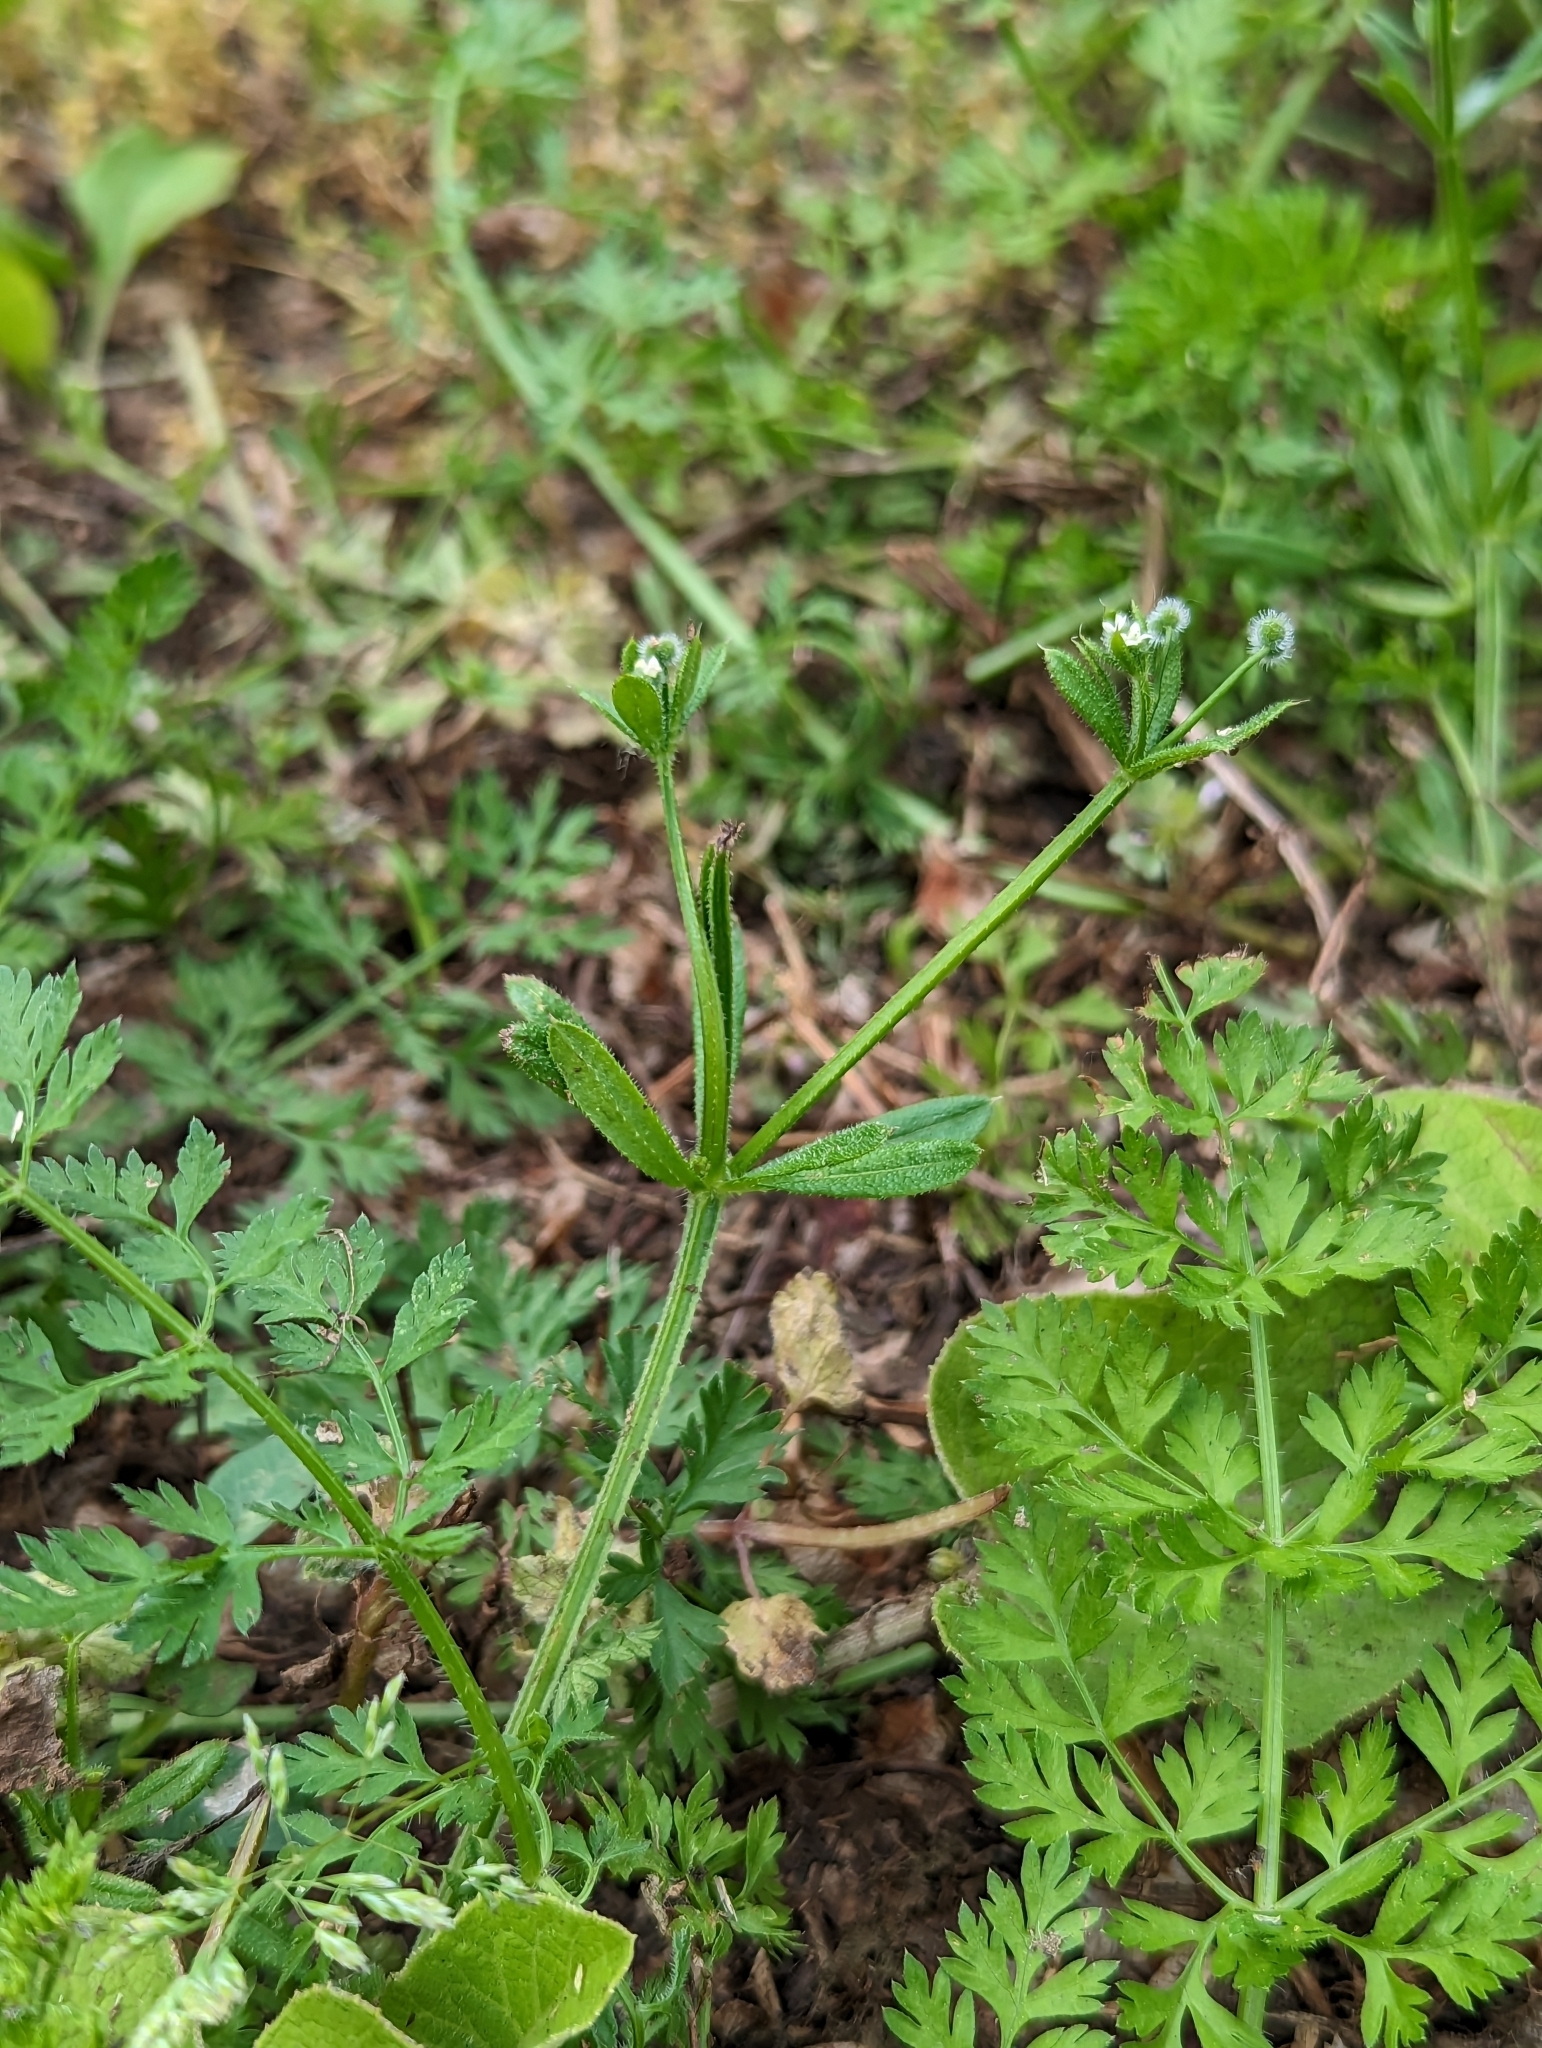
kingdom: Plantae
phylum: Tracheophyta
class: Magnoliopsida
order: Gentianales
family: Rubiaceae
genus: Galium
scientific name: Galium aparine
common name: Cleavers
